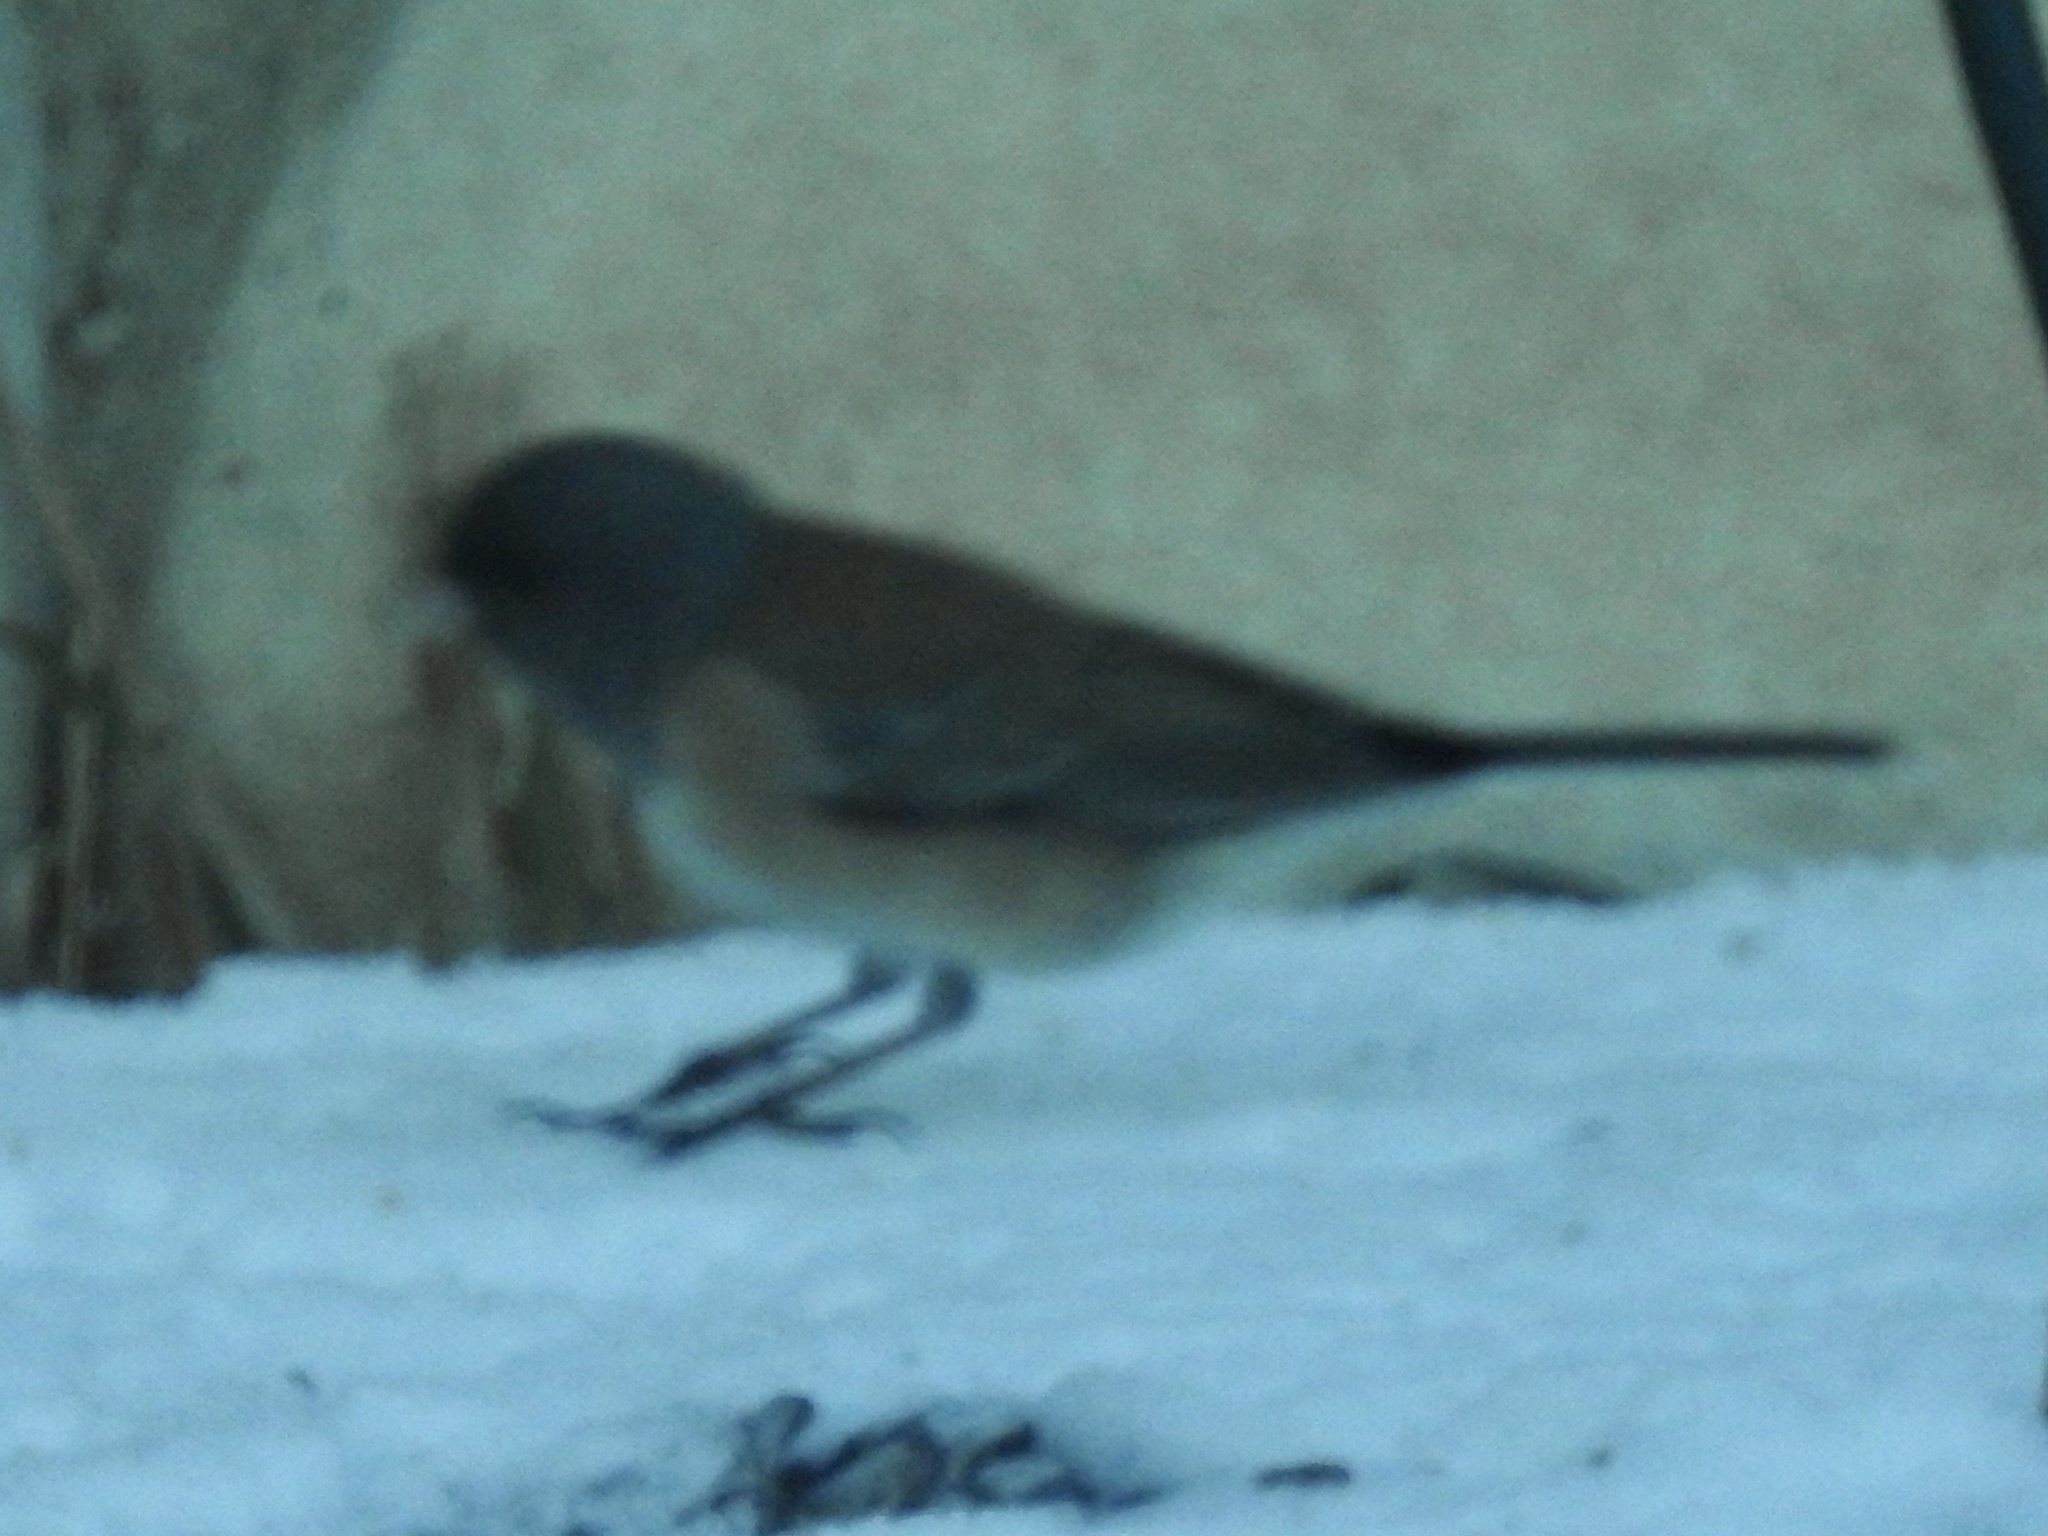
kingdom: Animalia
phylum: Chordata
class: Aves
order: Passeriformes
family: Passerellidae
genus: Junco
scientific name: Junco hyemalis
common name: Dark-eyed junco
